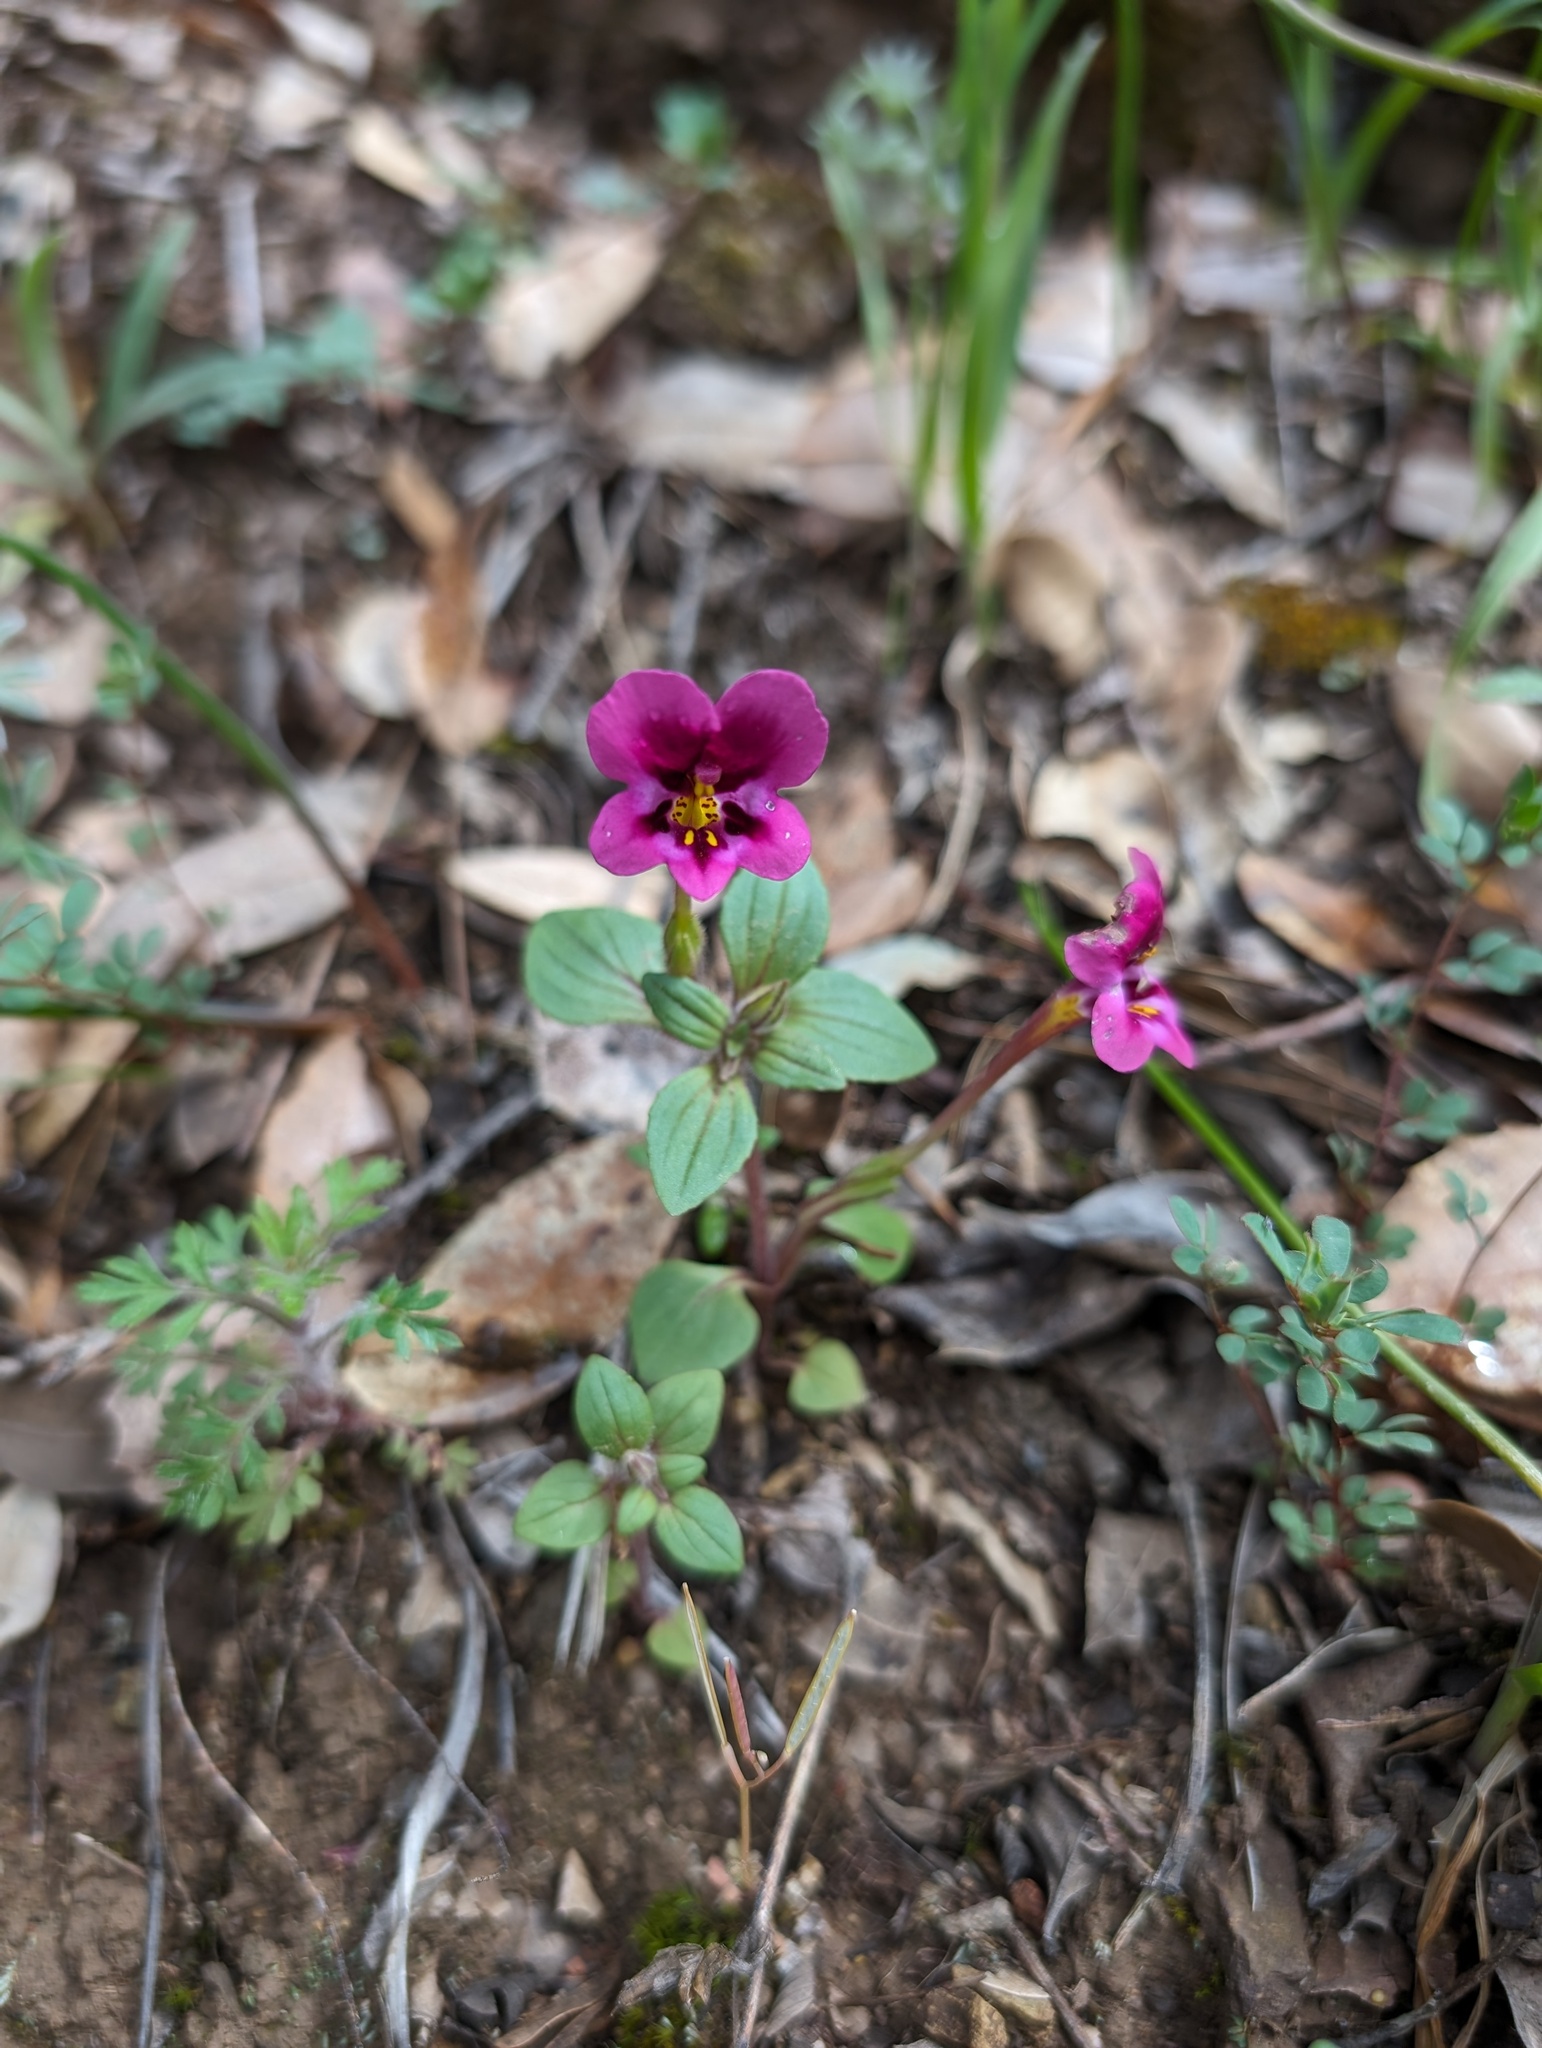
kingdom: Plantae
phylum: Tracheophyta
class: Magnoliopsida
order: Lamiales
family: Phrymaceae
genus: Diplacus
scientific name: Diplacus kelloggii
